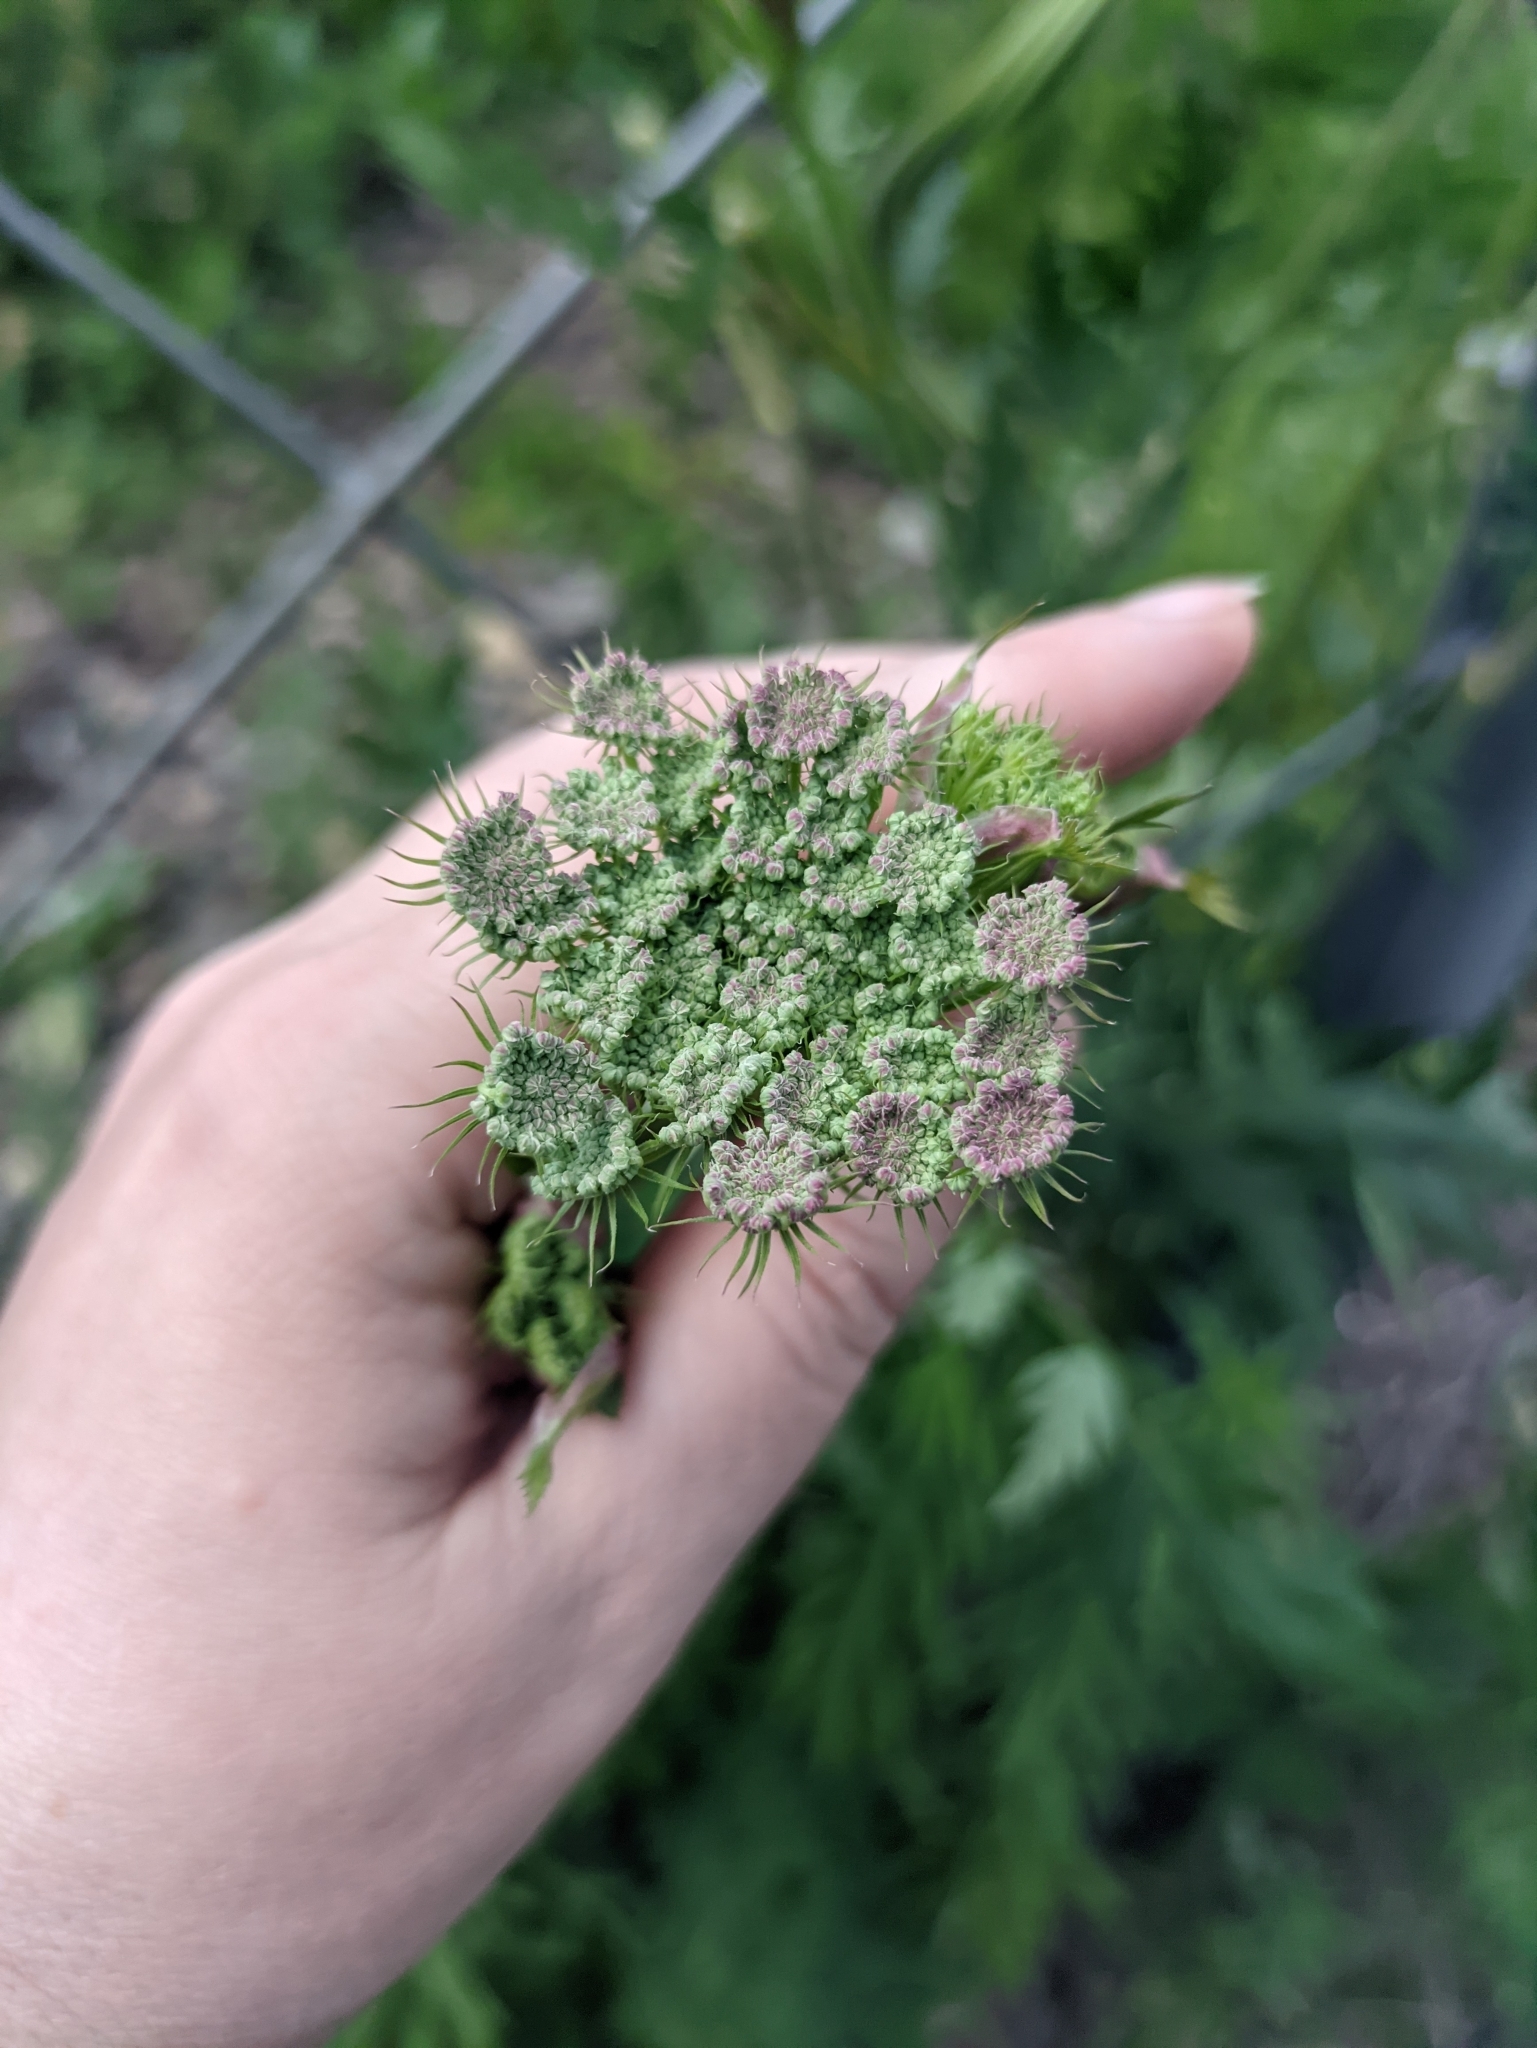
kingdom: Plantae
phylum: Tracheophyta
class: Magnoliopsida
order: Apiales
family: Apiaceae
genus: Seseli
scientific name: Seseli libanotis
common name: Mooncarrot
